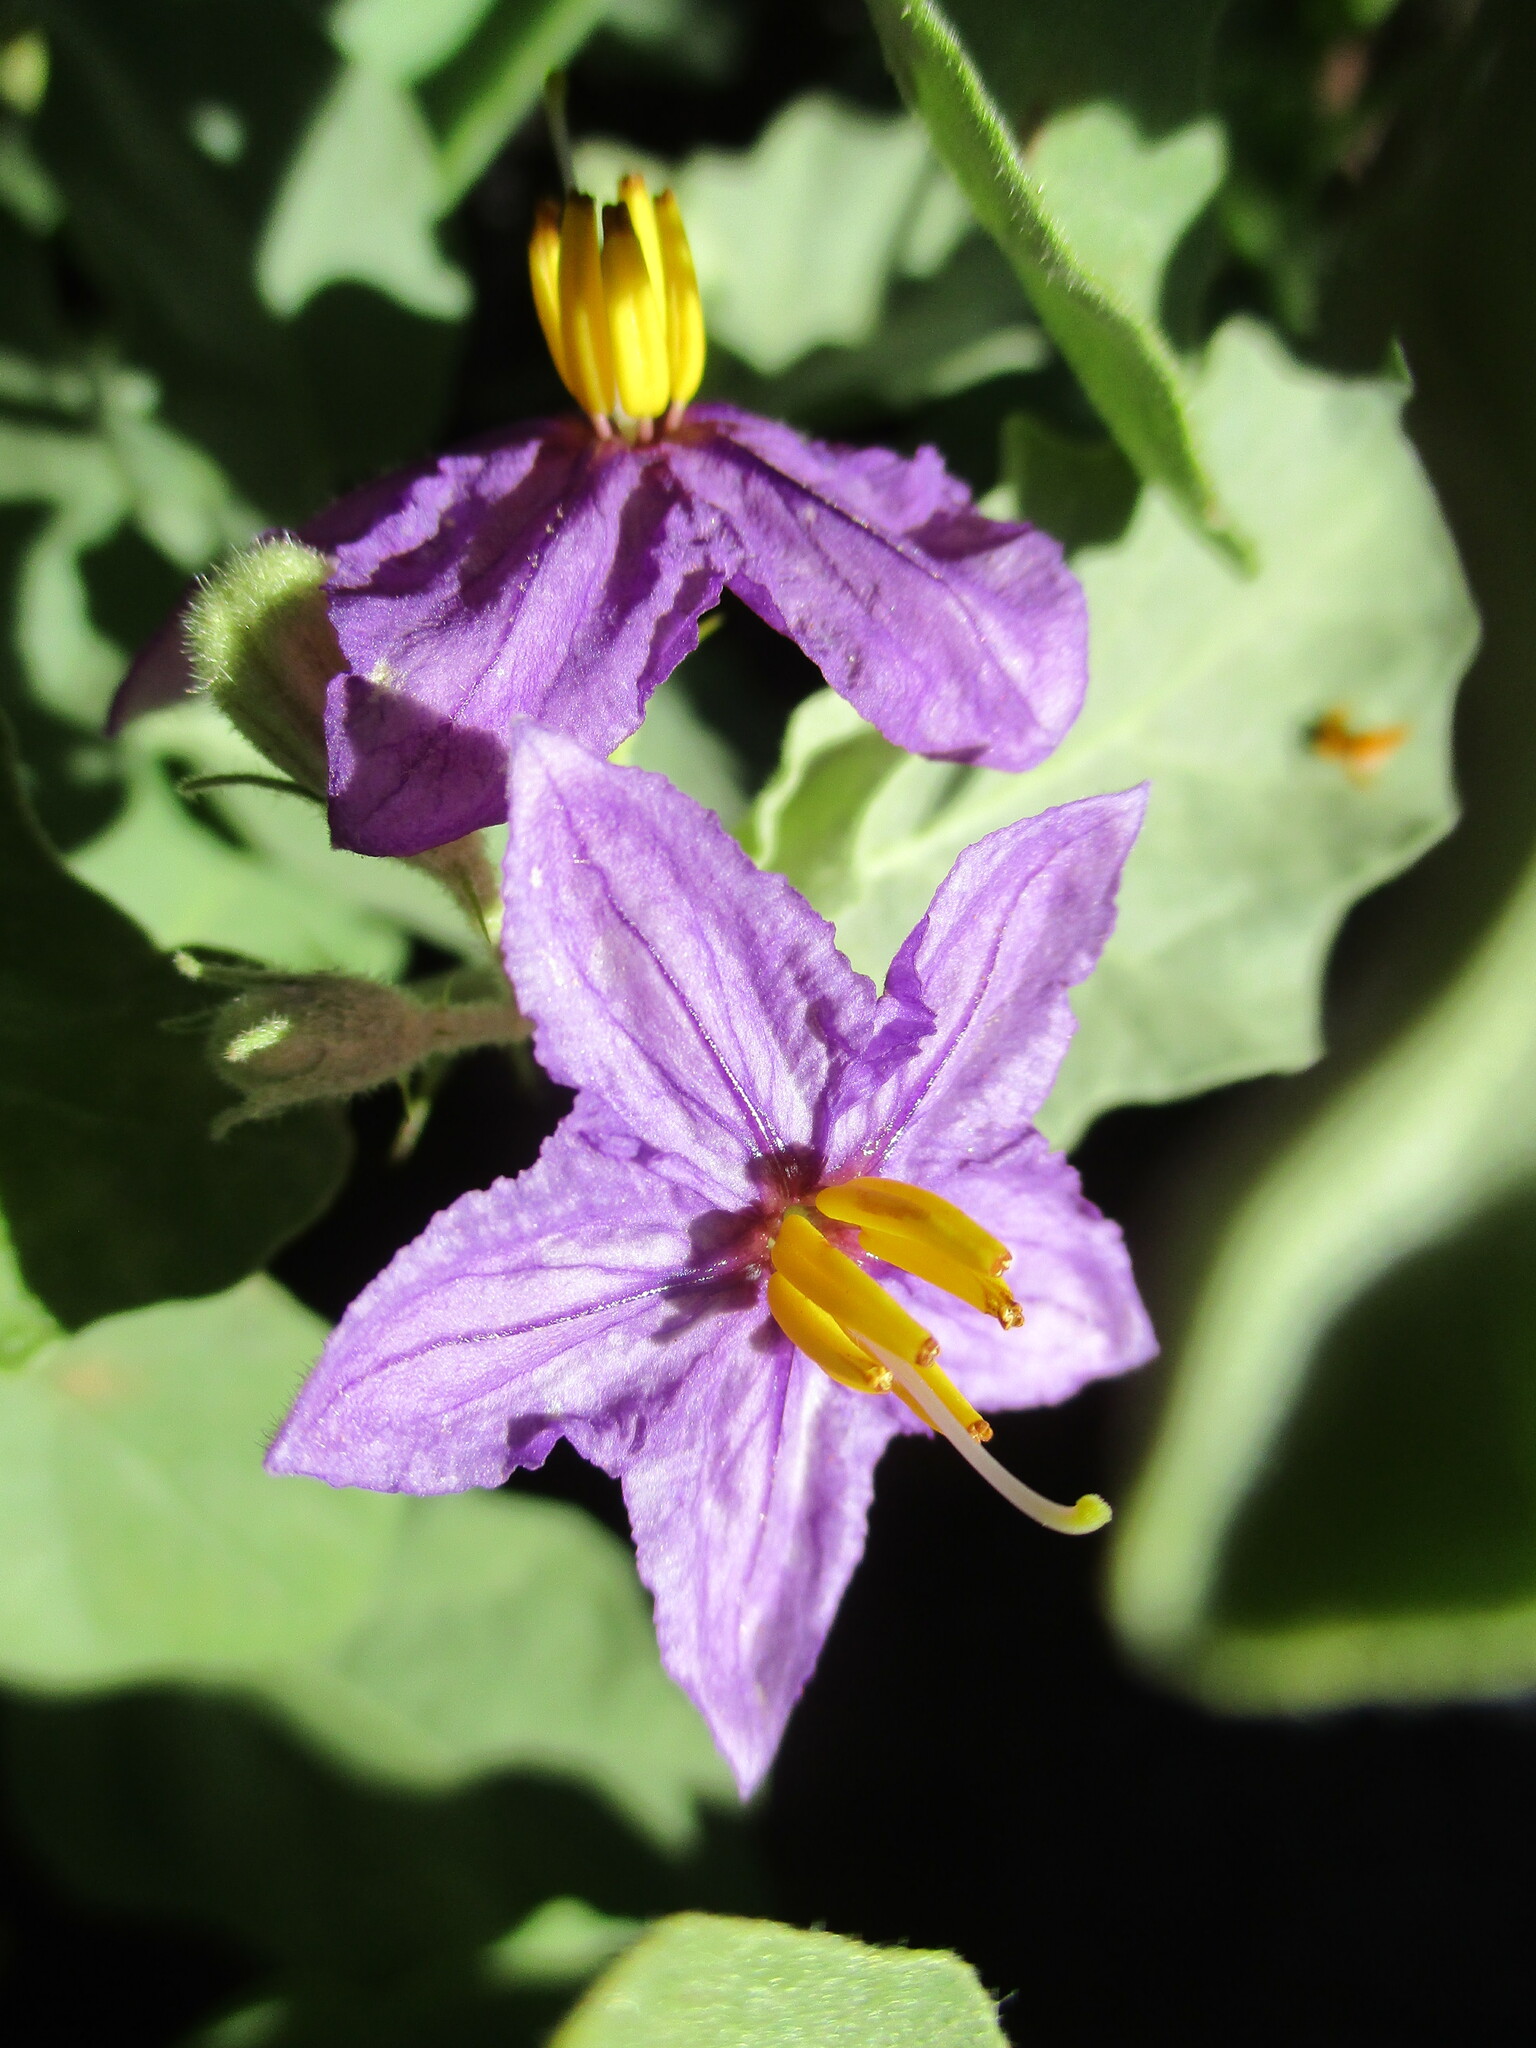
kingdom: Plantae
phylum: Tracheophyta
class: Magnoliopsida
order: Solanales
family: Solanaceae
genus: Solanum
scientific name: Solanum burchellii
